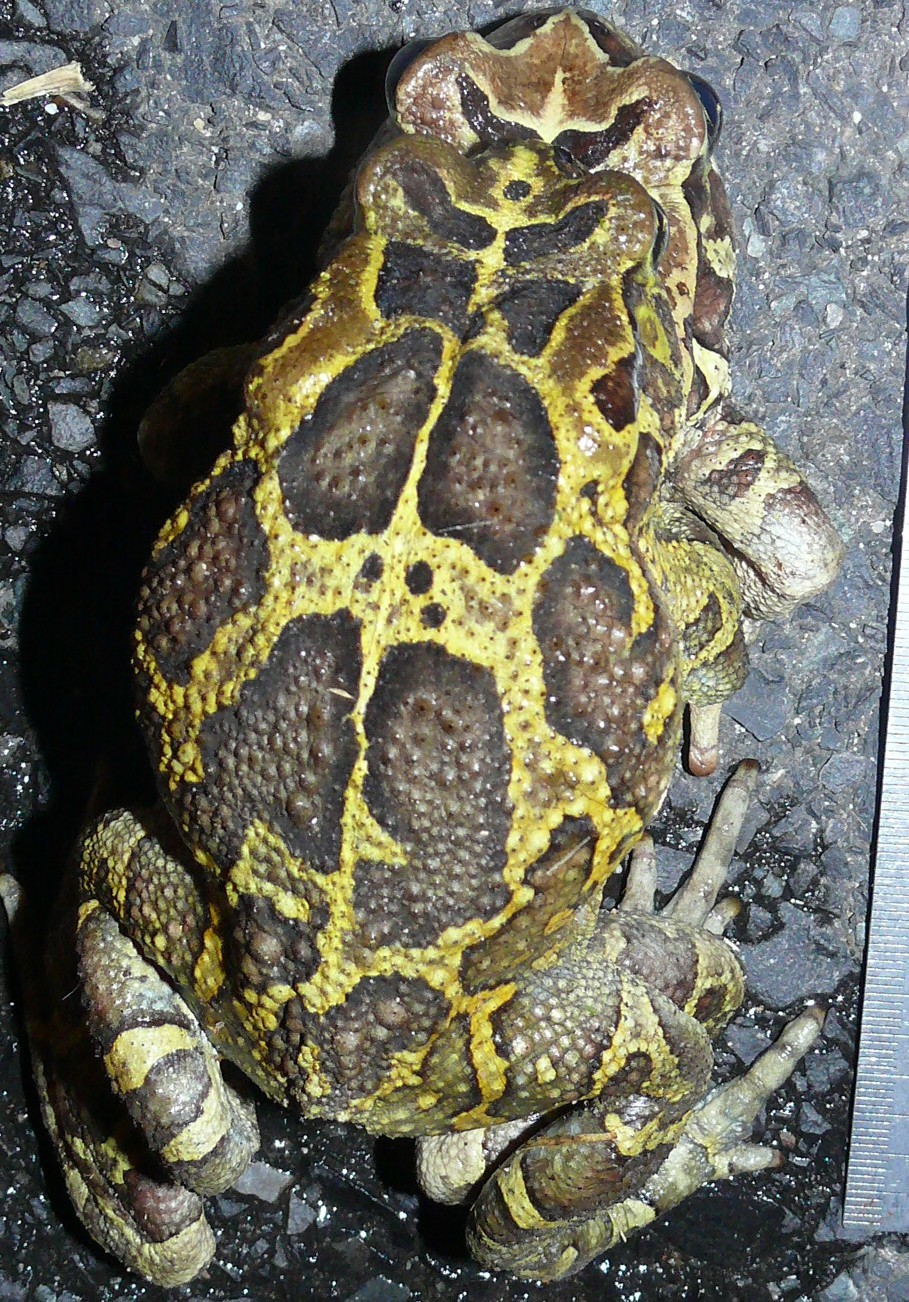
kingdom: Animalia
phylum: Chordata
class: Amphibia
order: Anura
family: Bufonidae
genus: Sclerophrys
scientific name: Sclerophrys pantherina
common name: Panther toad
